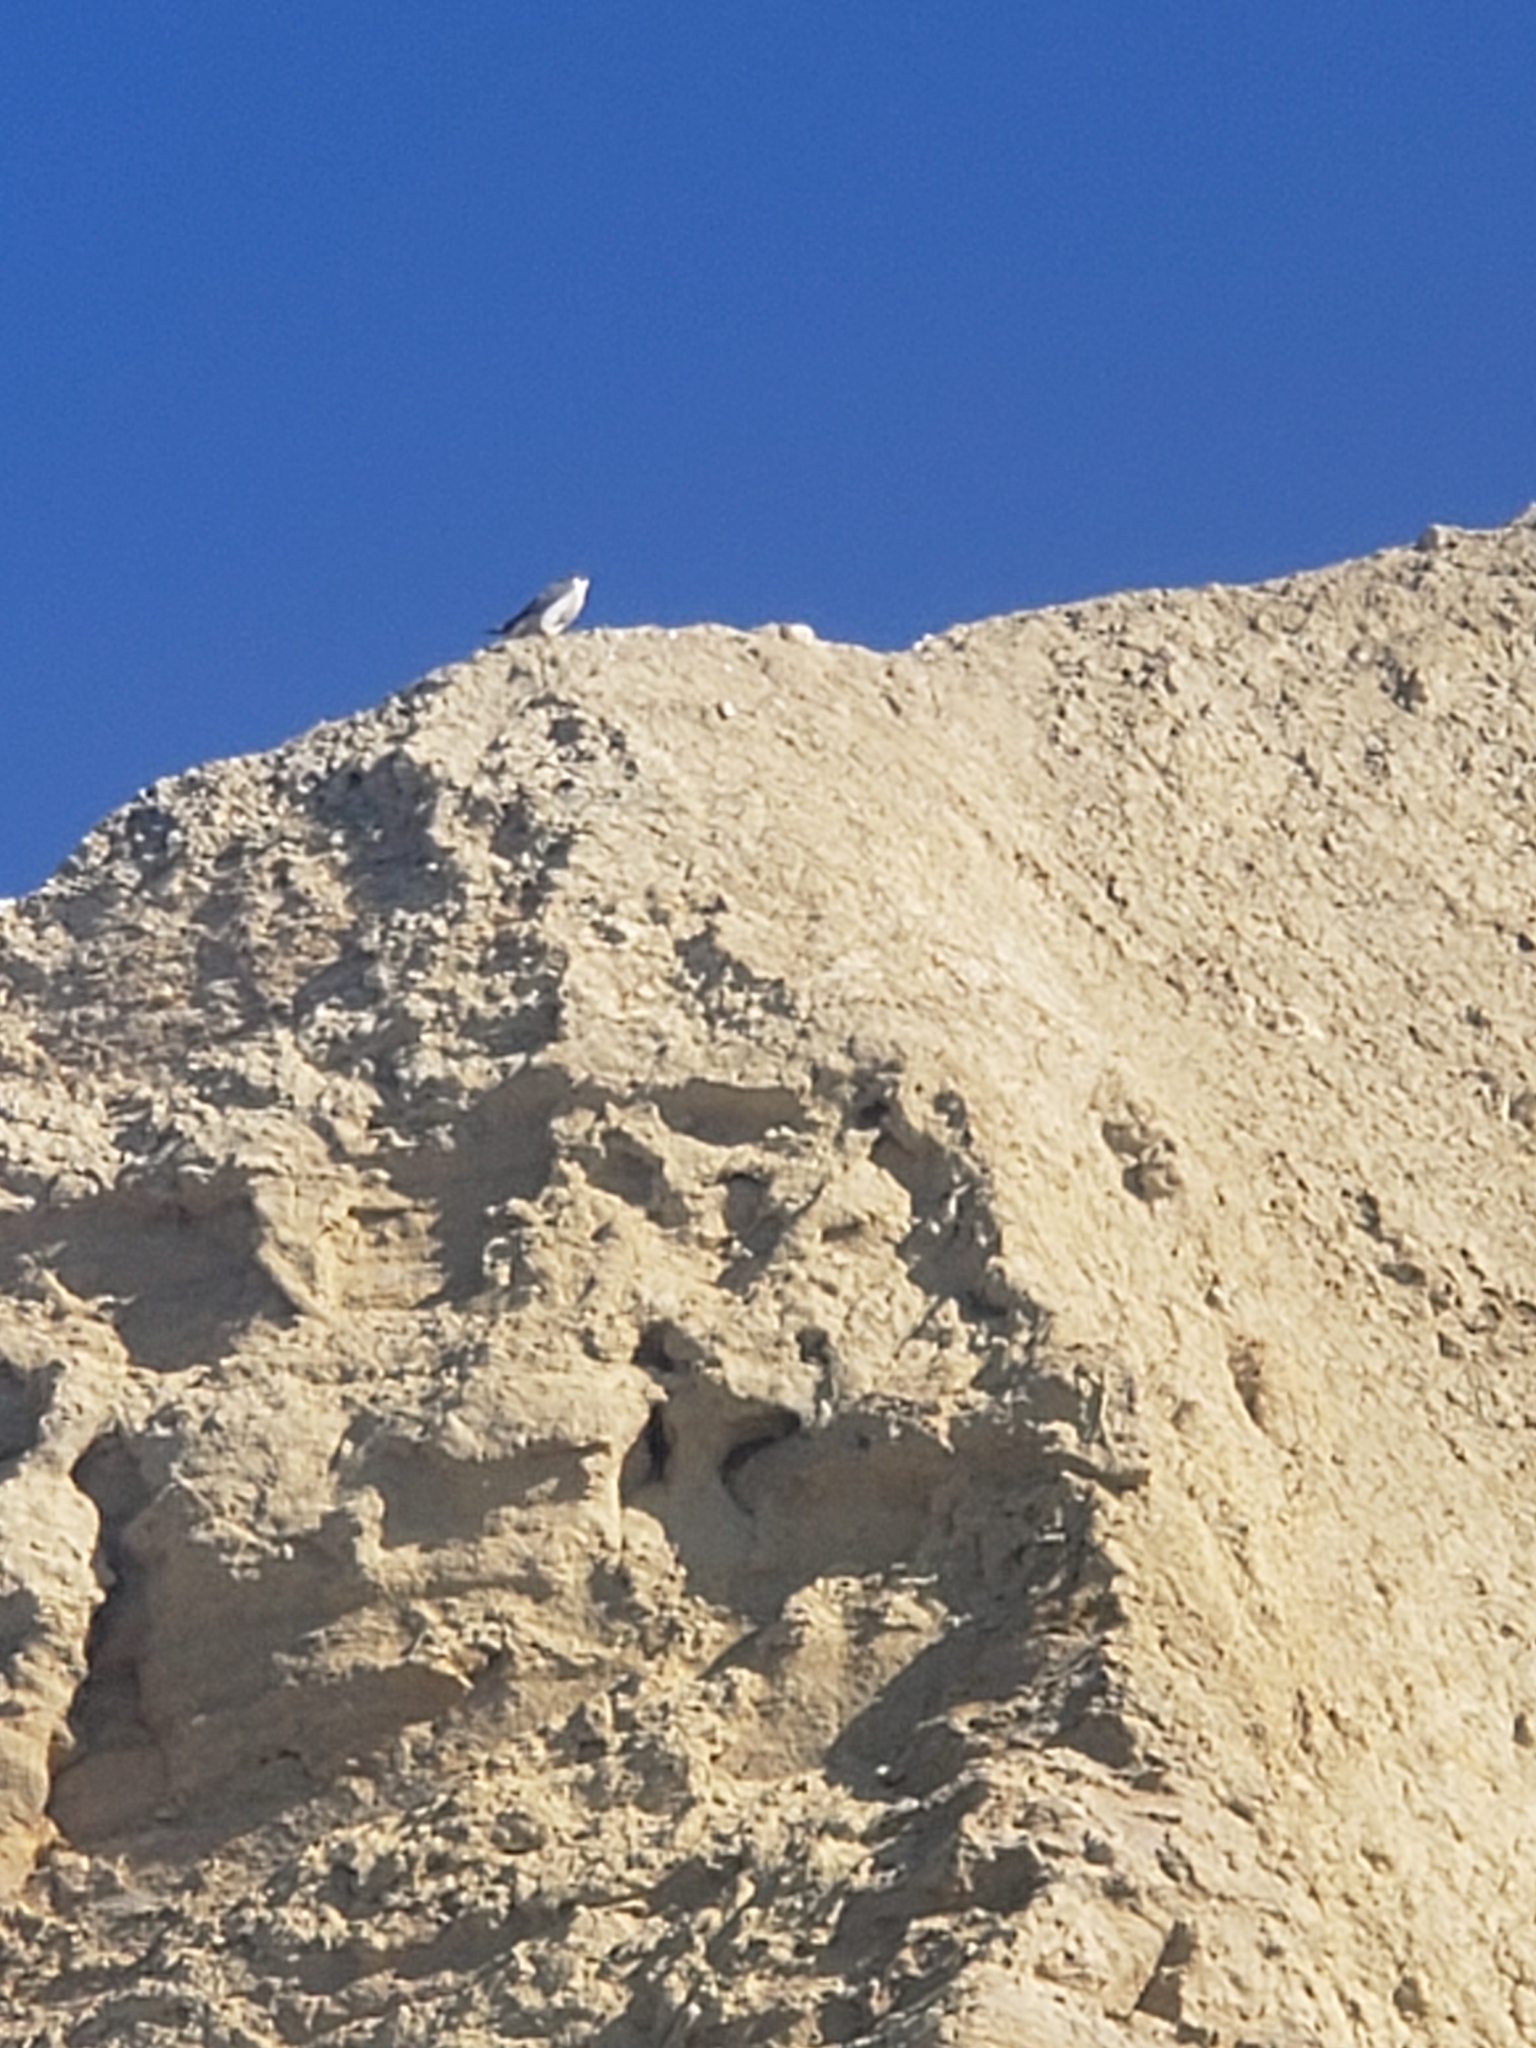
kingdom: Animalia
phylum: Chordata
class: Aves
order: Falconiformes
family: Falconidae
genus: Falco
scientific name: Falco peregrinus
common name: Peregrine falcon
